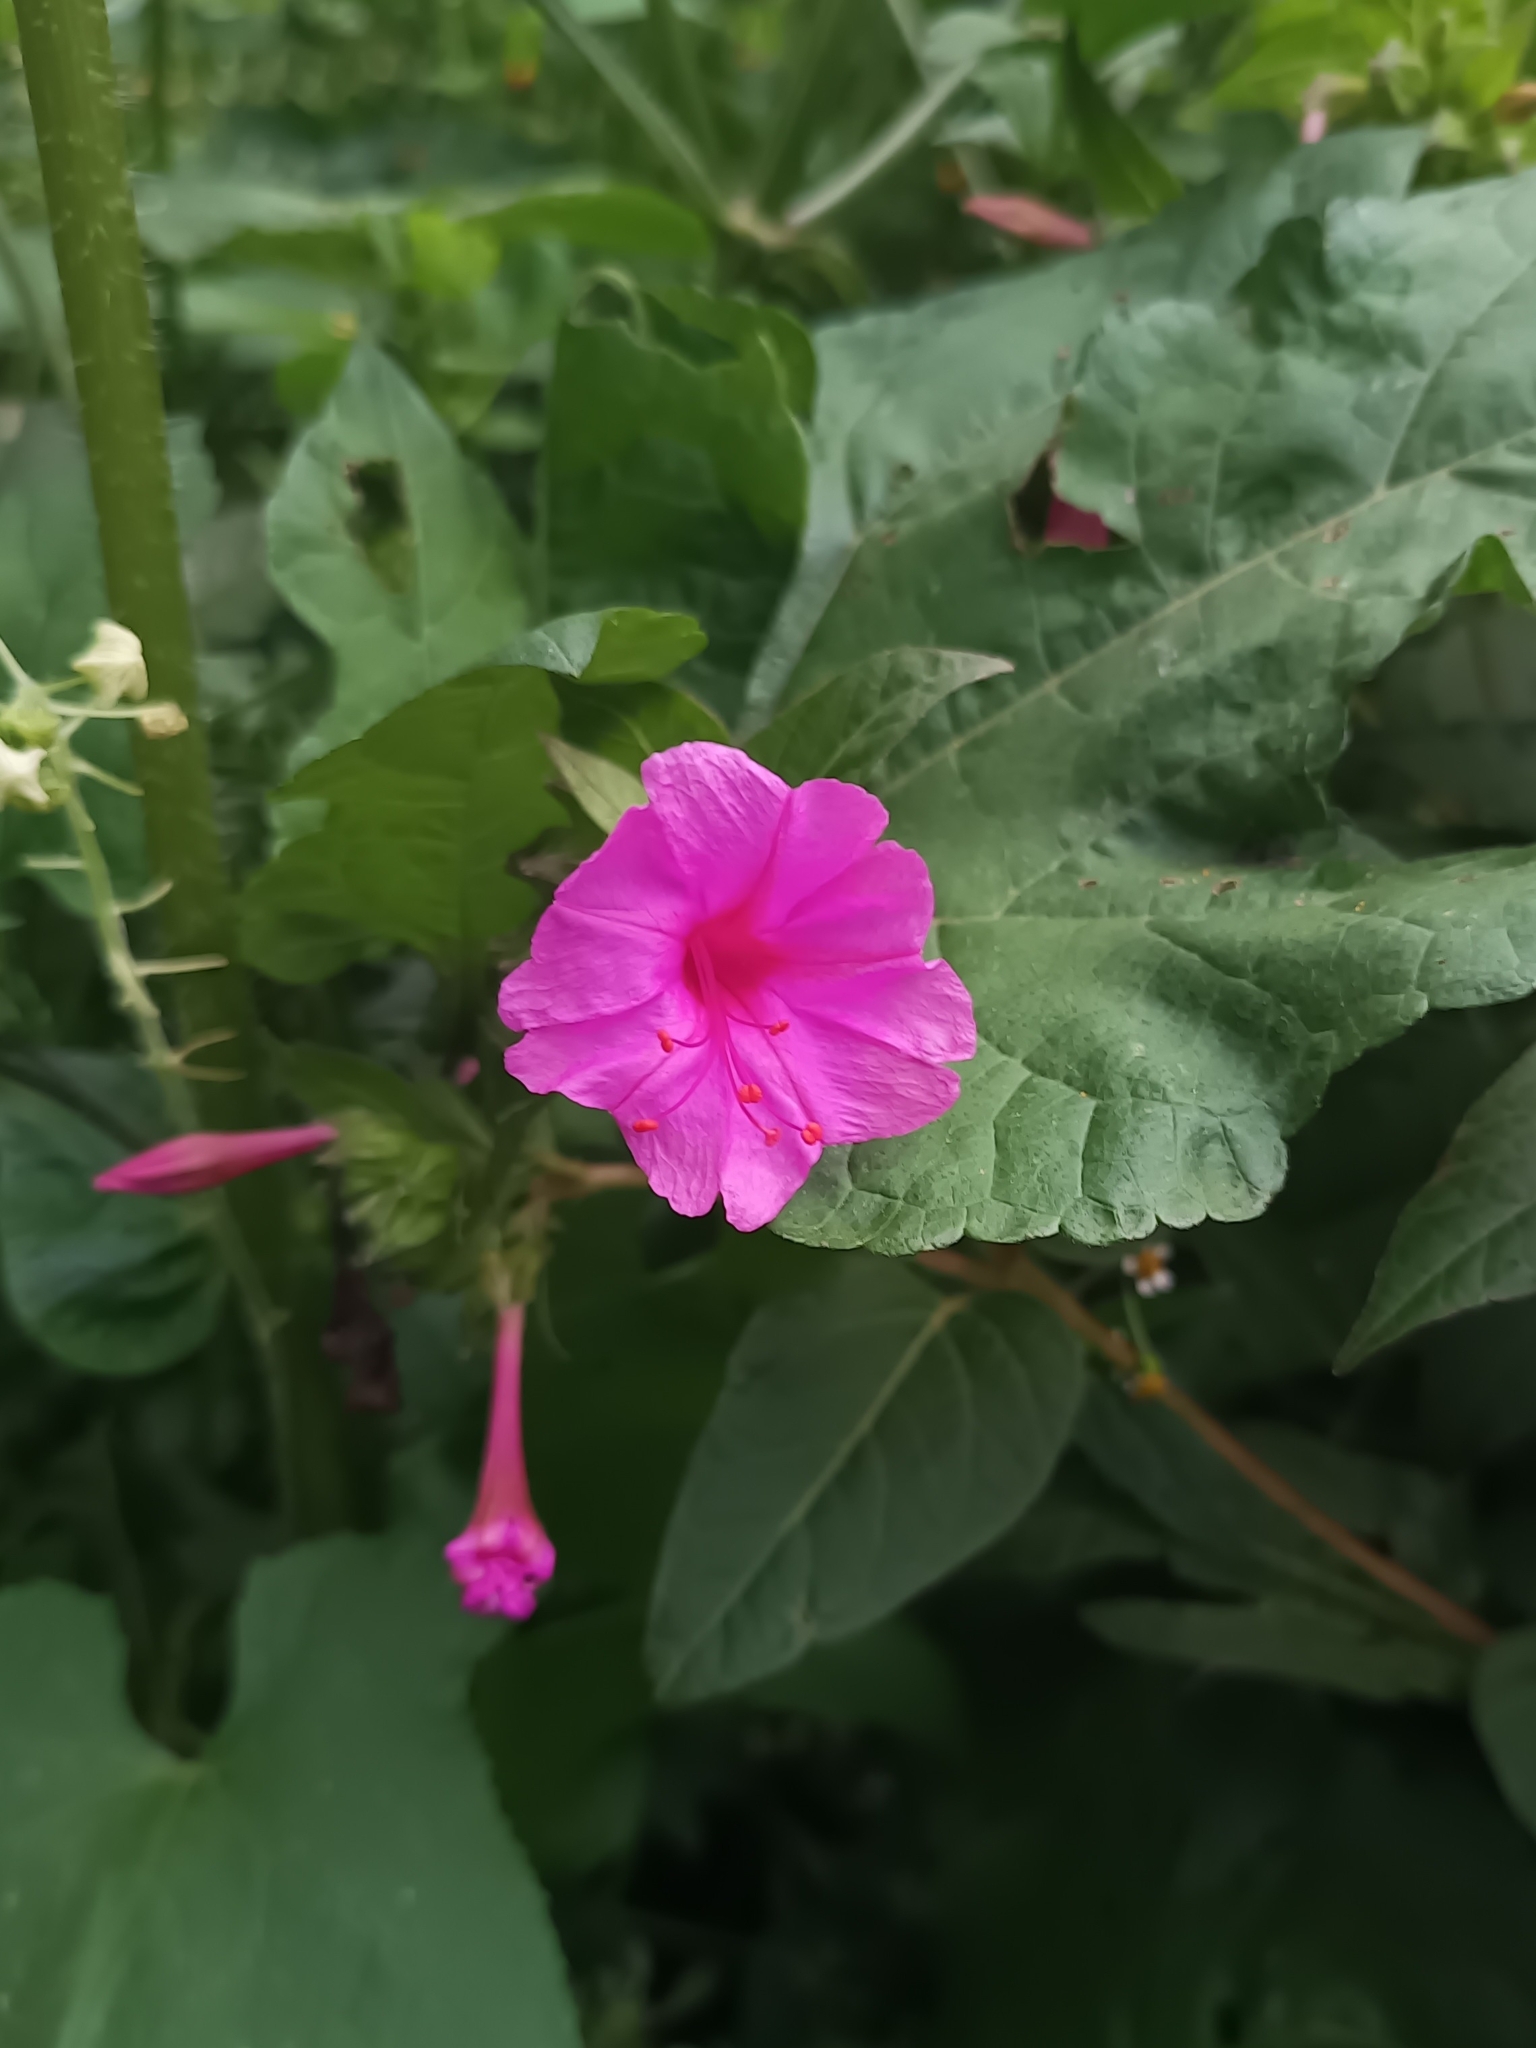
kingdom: Plantae
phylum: Tracheophyta
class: Magnoliopsida
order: Caryophyllales
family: Nyctaginaceae
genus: Mirabilis
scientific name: Mirabilis jalapa
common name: Marvel-of-peru
